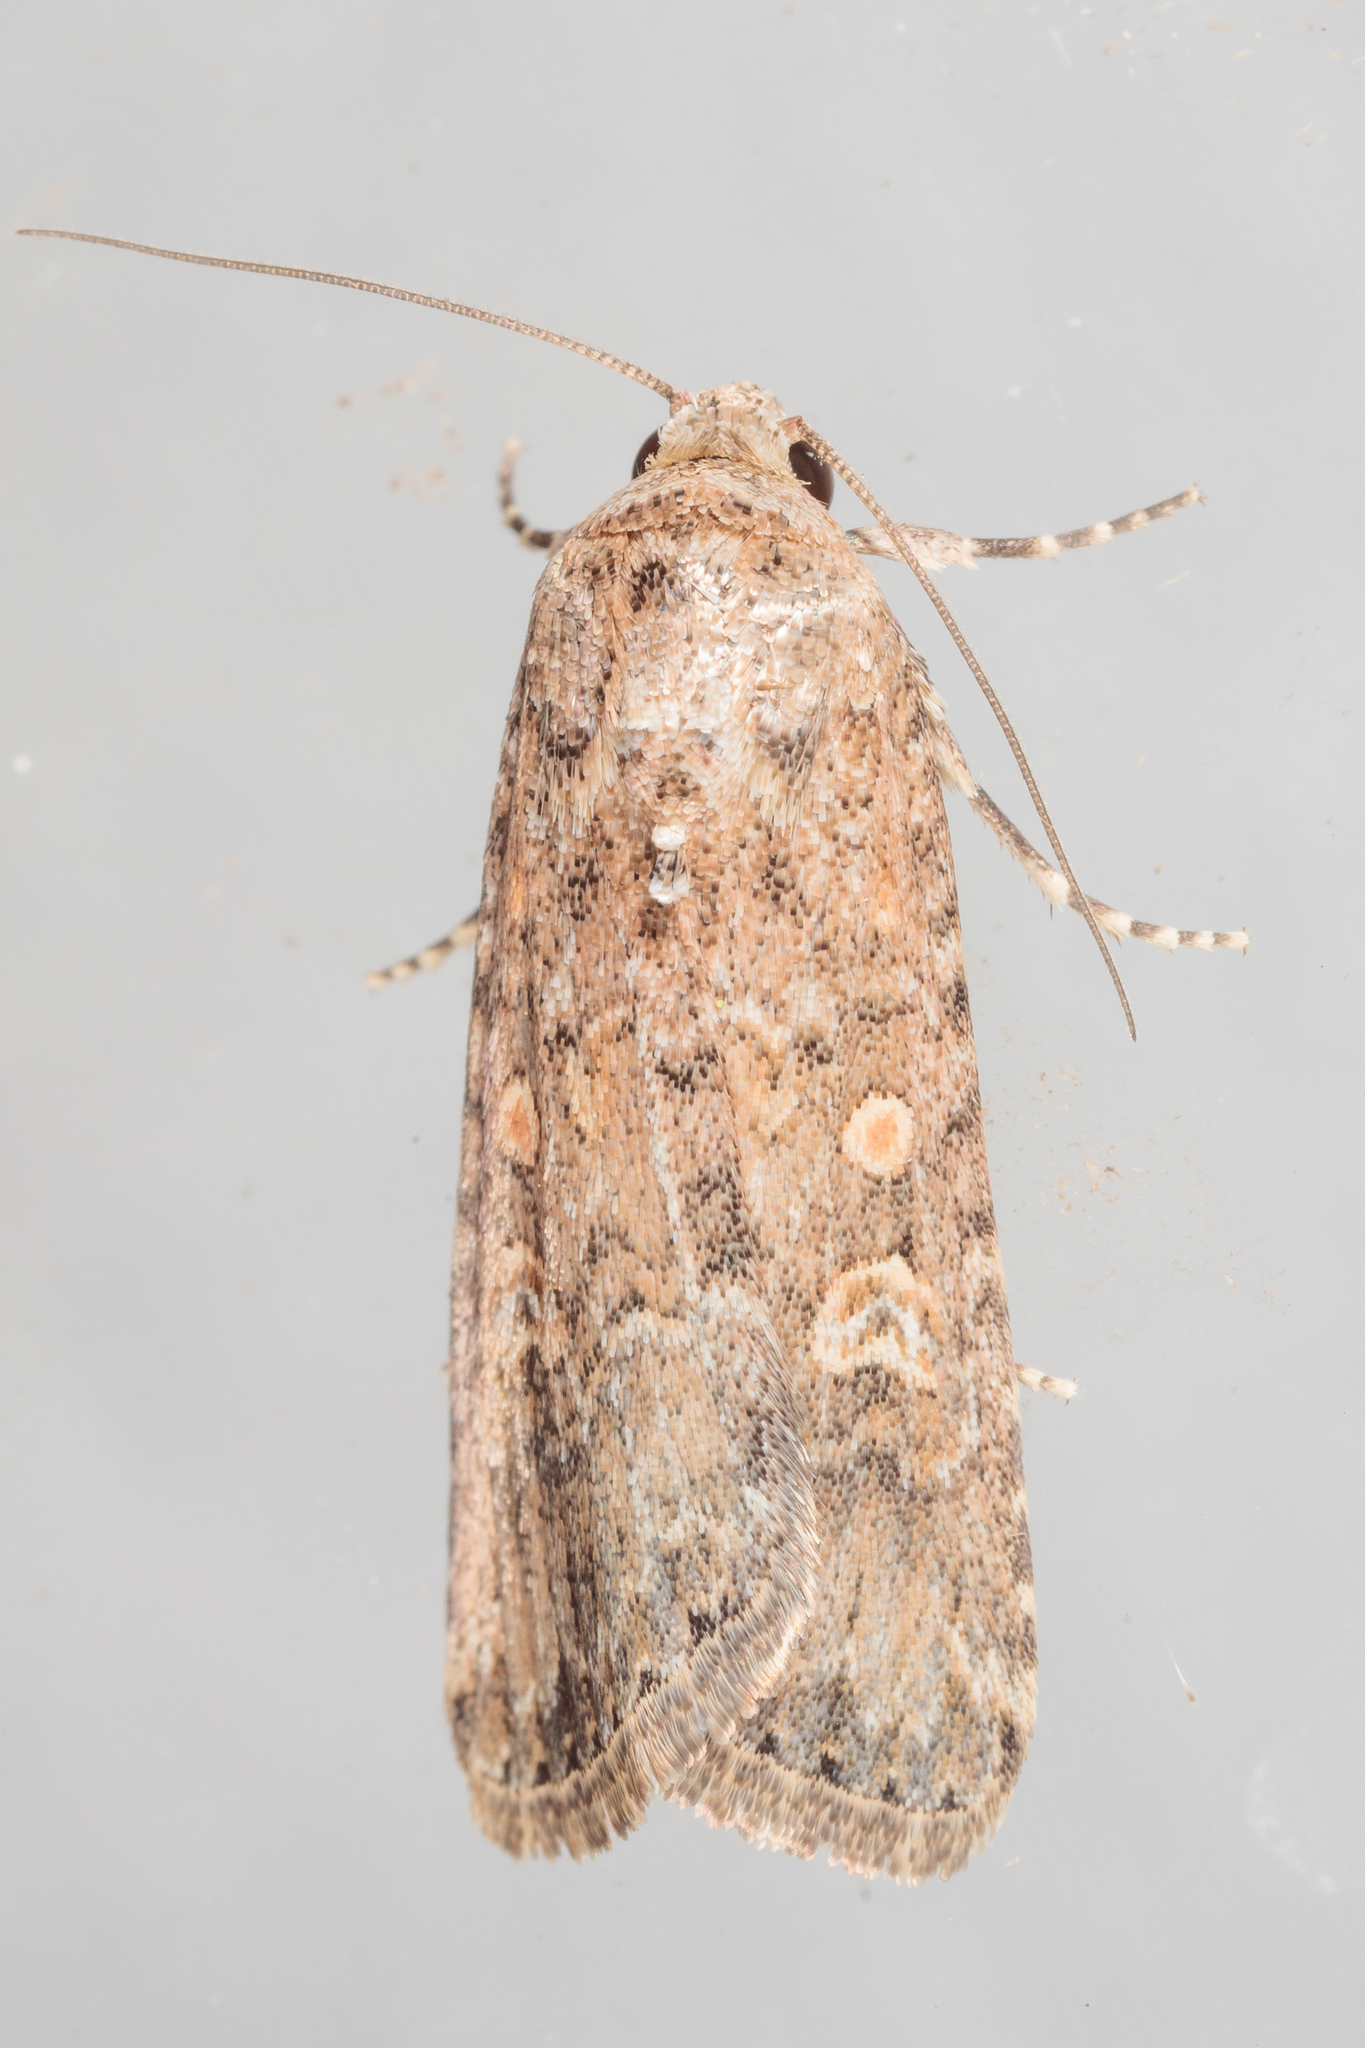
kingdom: Animalia
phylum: Arthropoda
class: Insecta
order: Lepidoptera
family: Noctuidae
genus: Spodoptera
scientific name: Spodoptera exigua
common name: Beet armyworm
